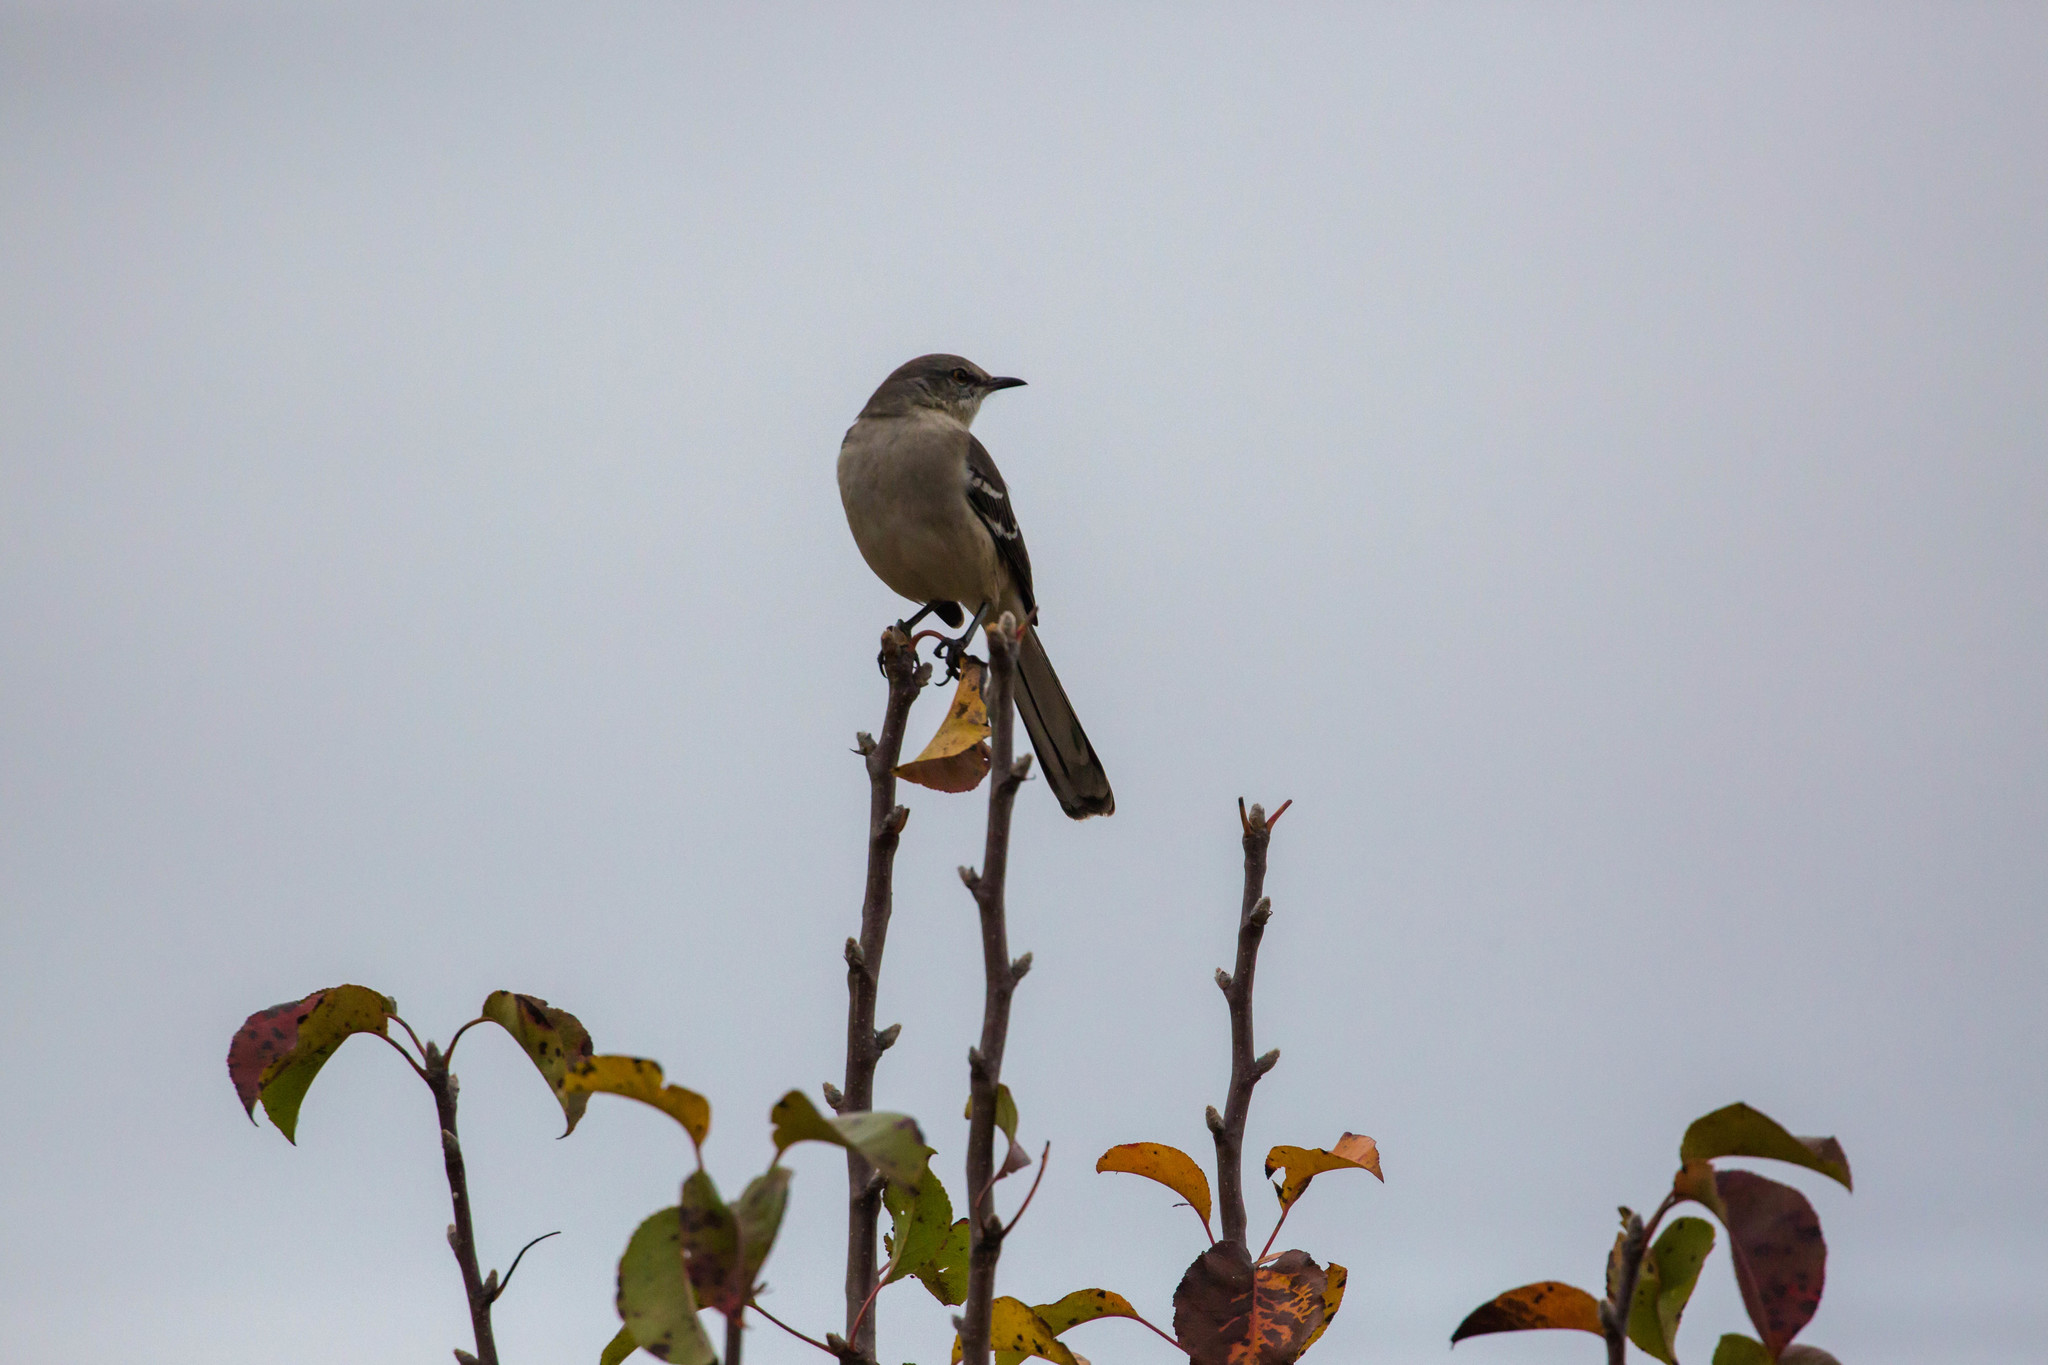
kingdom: Animalia
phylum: Chordata
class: Aves
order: Passeriformes
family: Mimidae
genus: Mimus
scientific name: Mimus polyglottos
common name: Northern mockingbird
